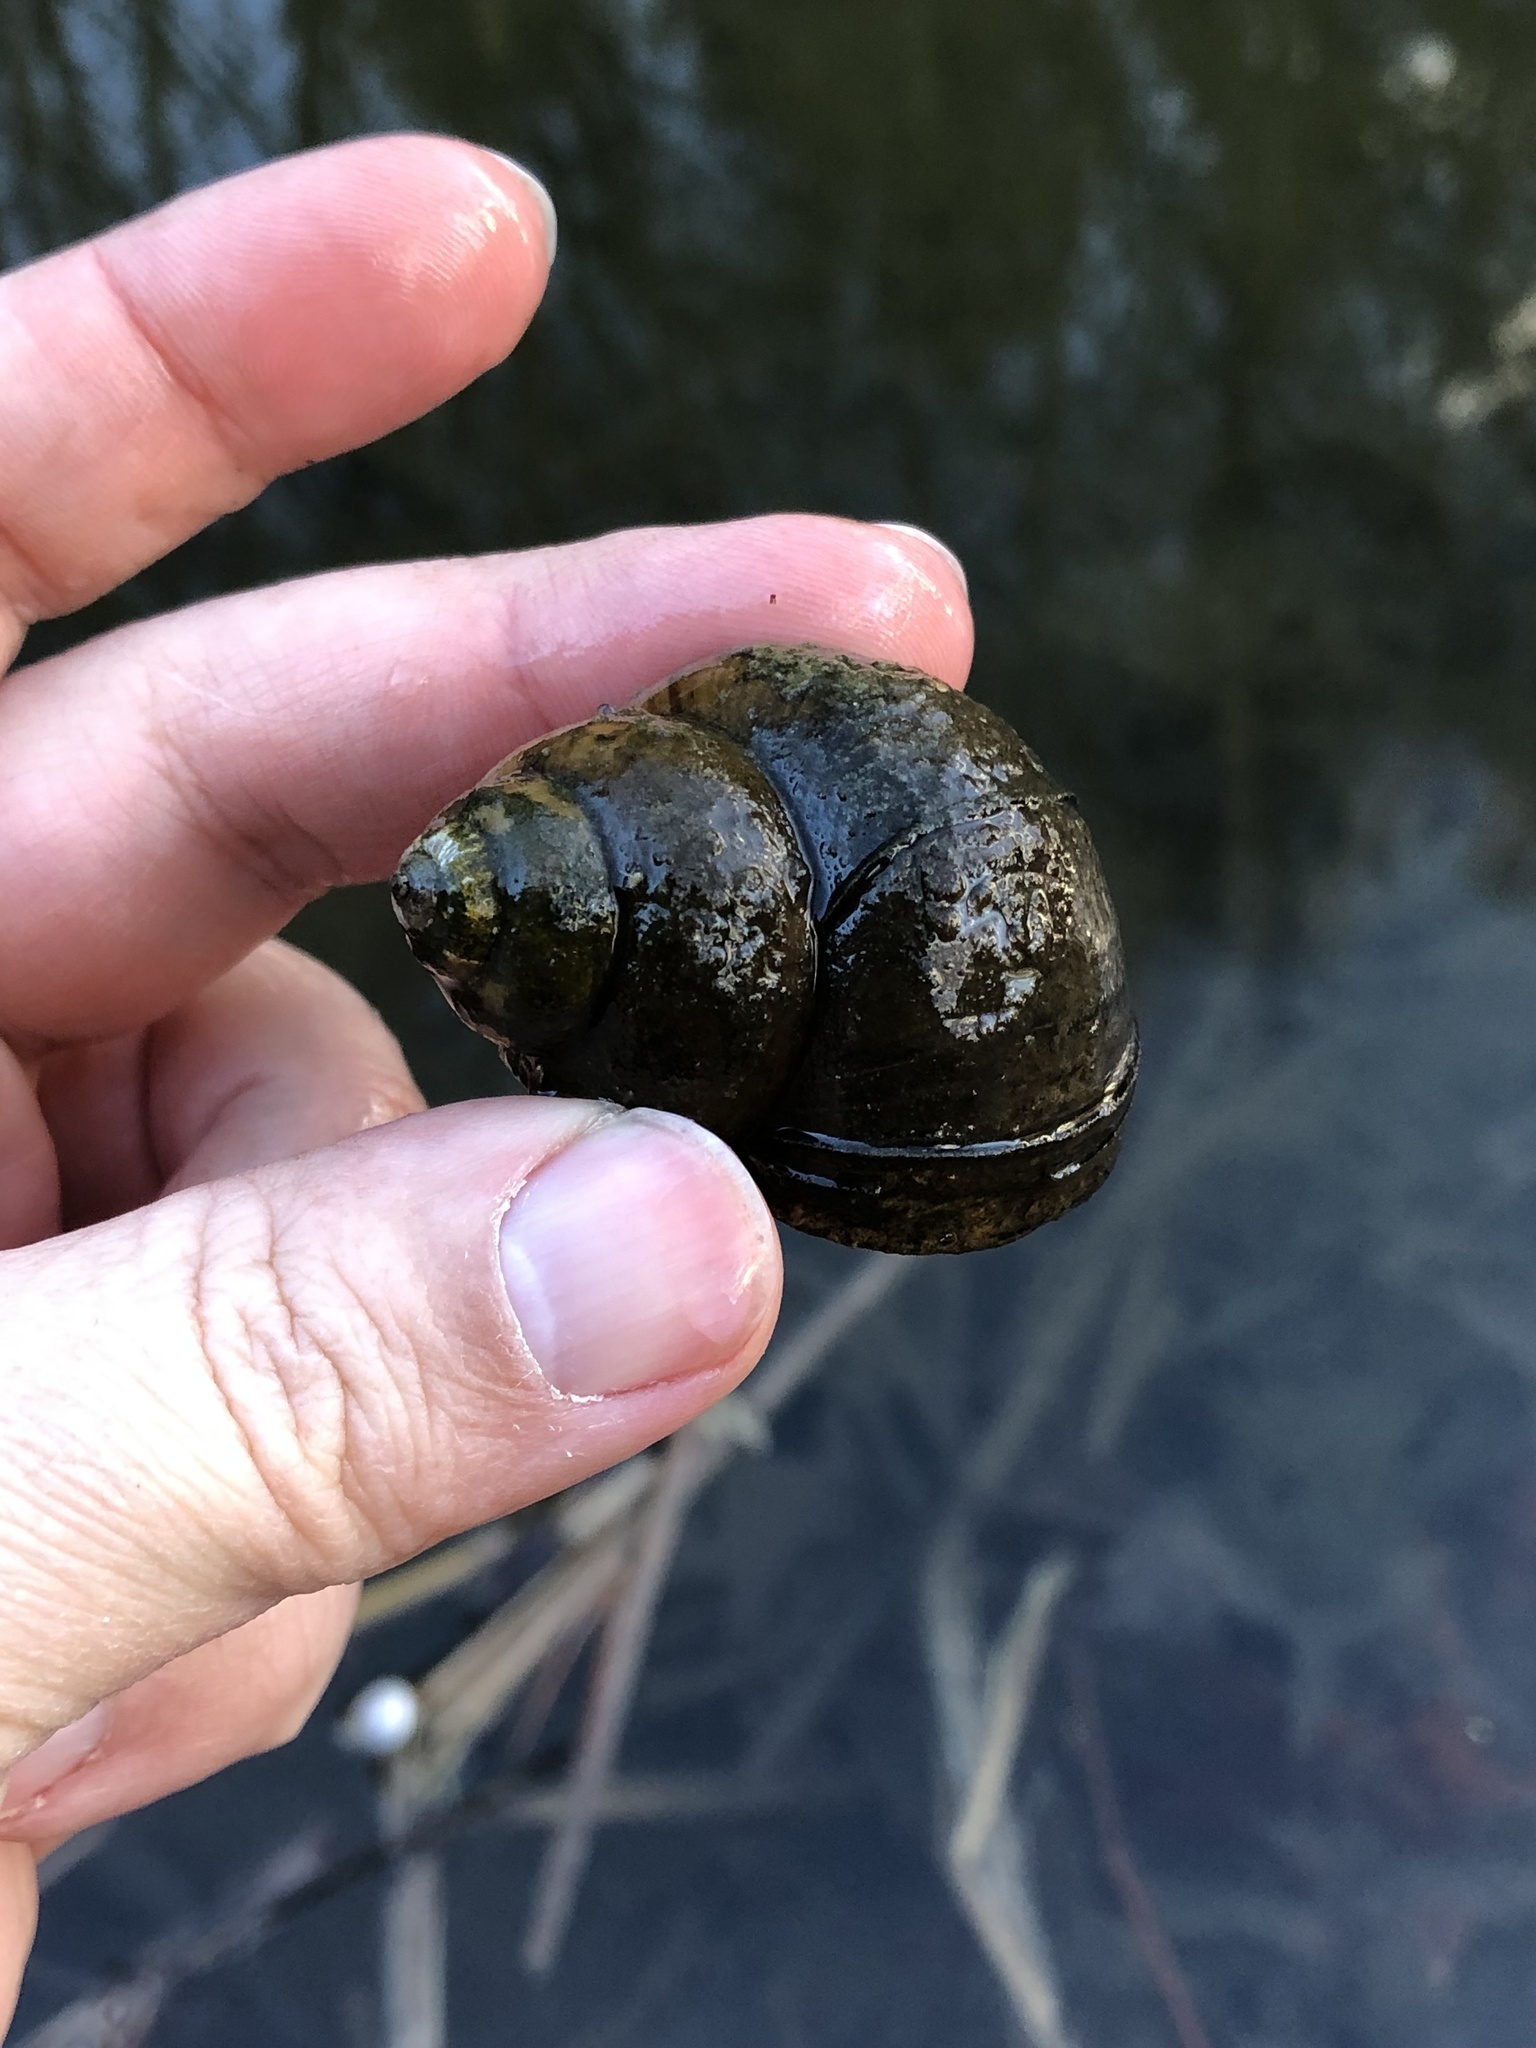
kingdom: Animalia
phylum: Mollusca
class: Gastropoda
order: Architaenioglossa
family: Viviparidae
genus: Cipangopaludina
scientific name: Cipangopaludina chinensis
